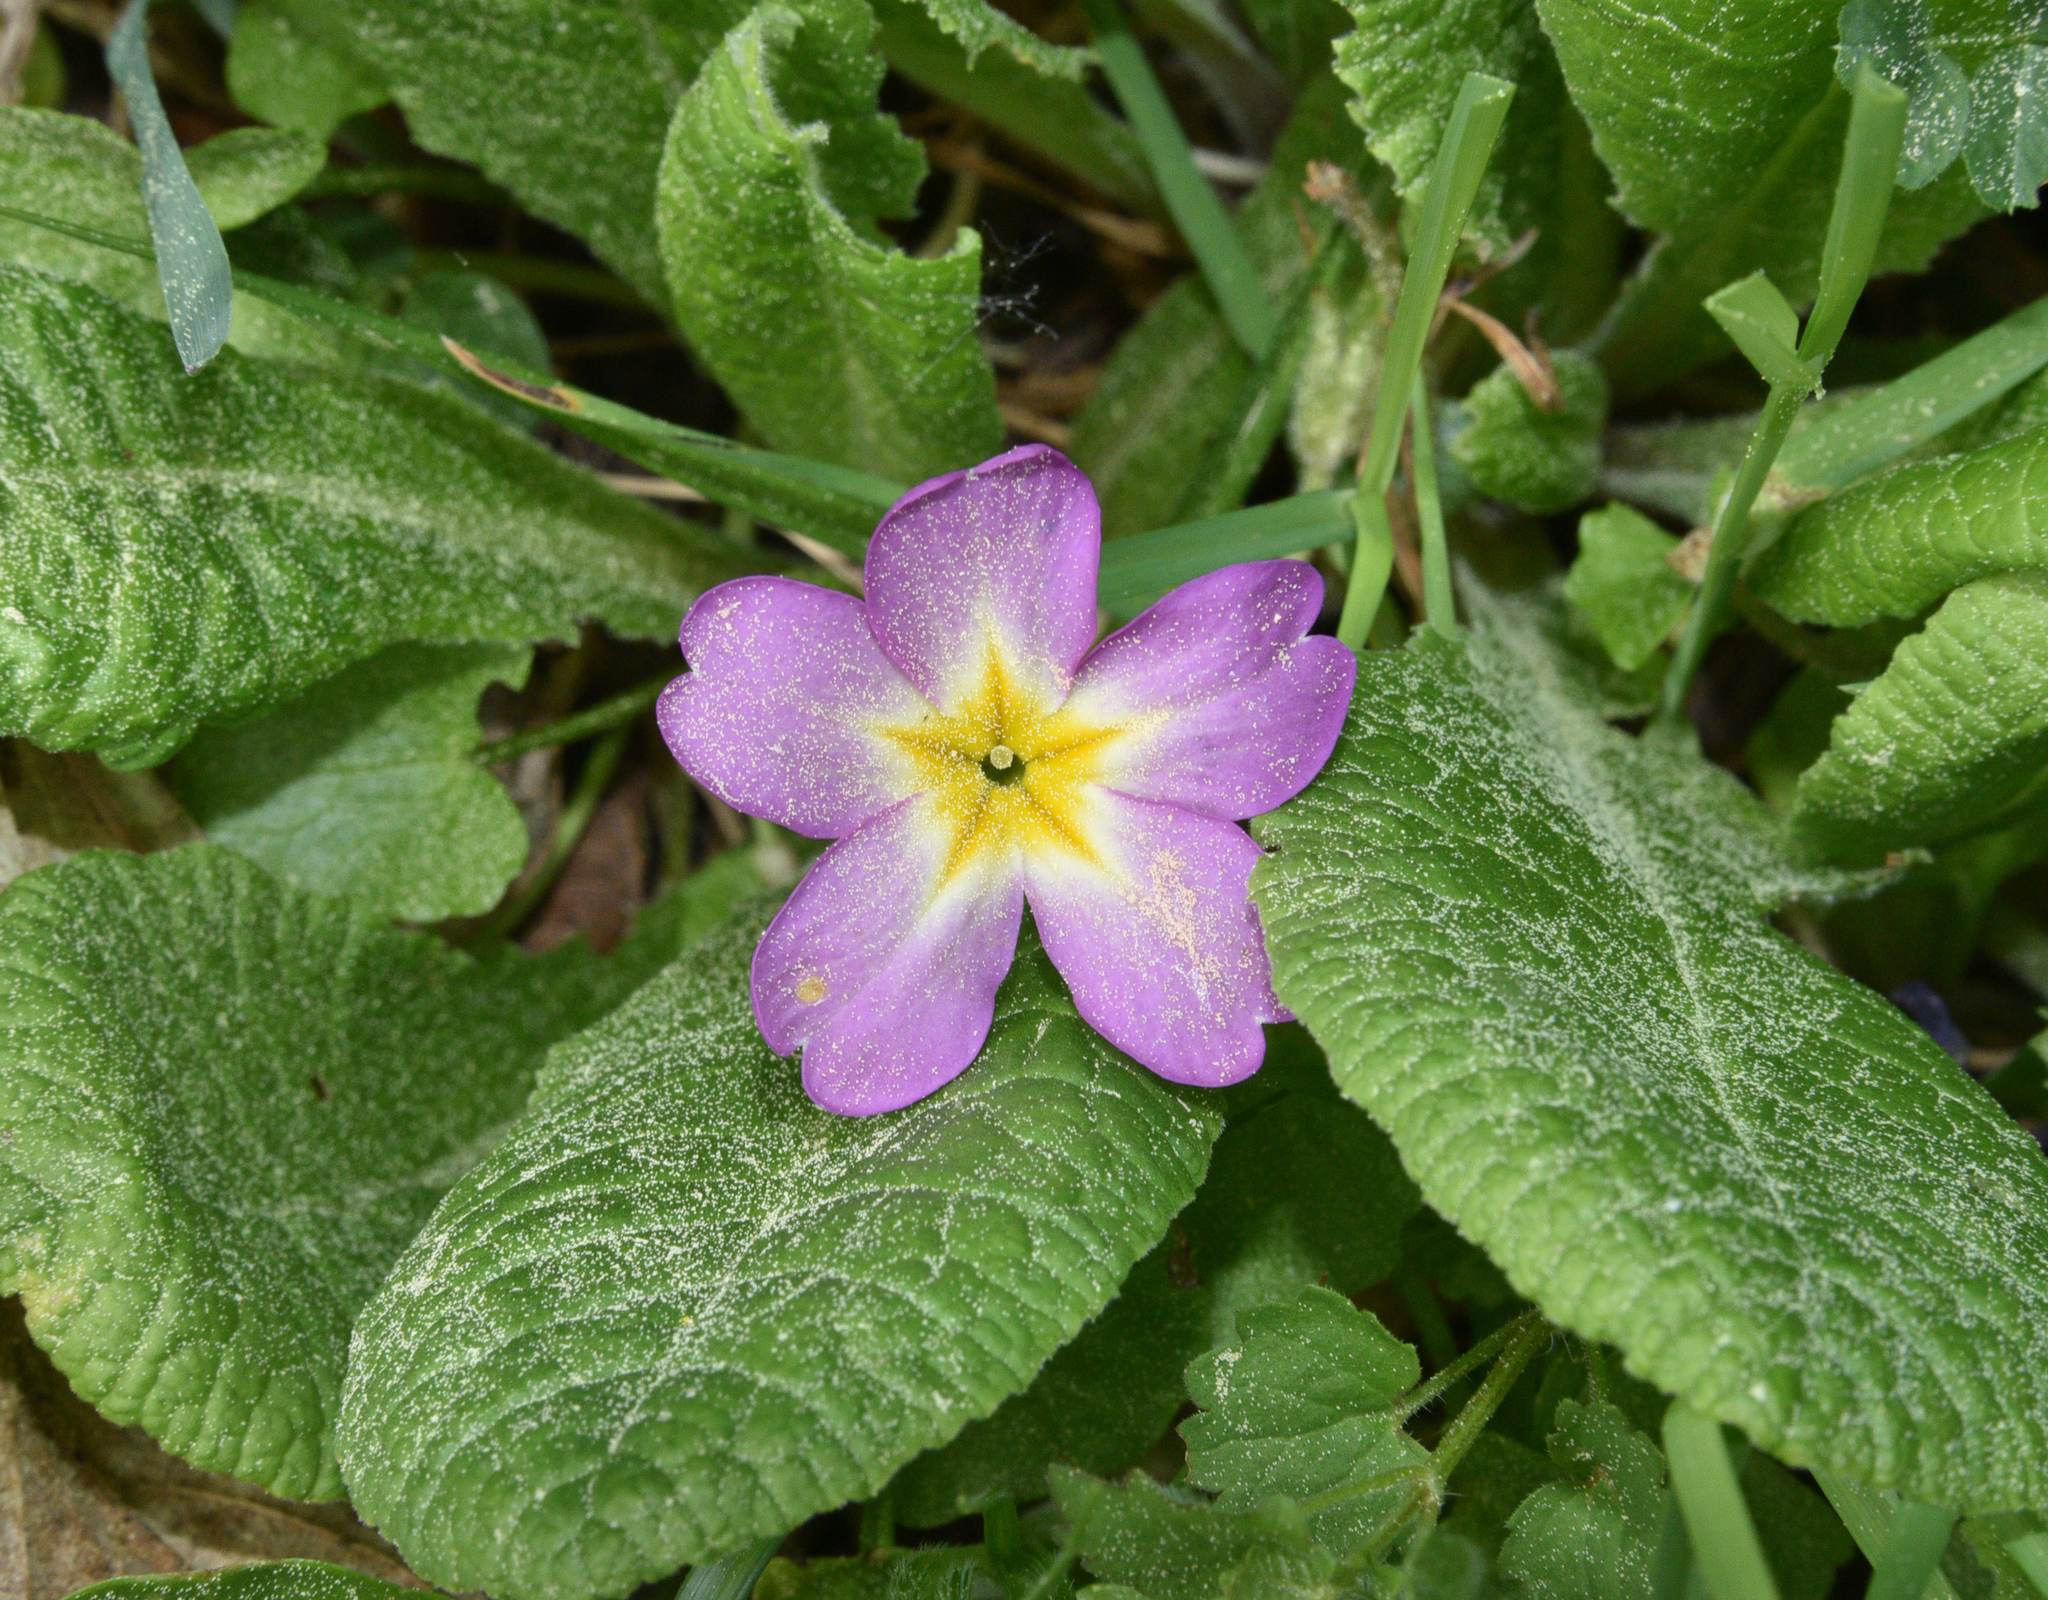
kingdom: Plantae
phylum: Tracheophyta
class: Magnoliopsida
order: Ericales
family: Primulaceae
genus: Primula
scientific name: Primula vulgaris
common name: Primrose
